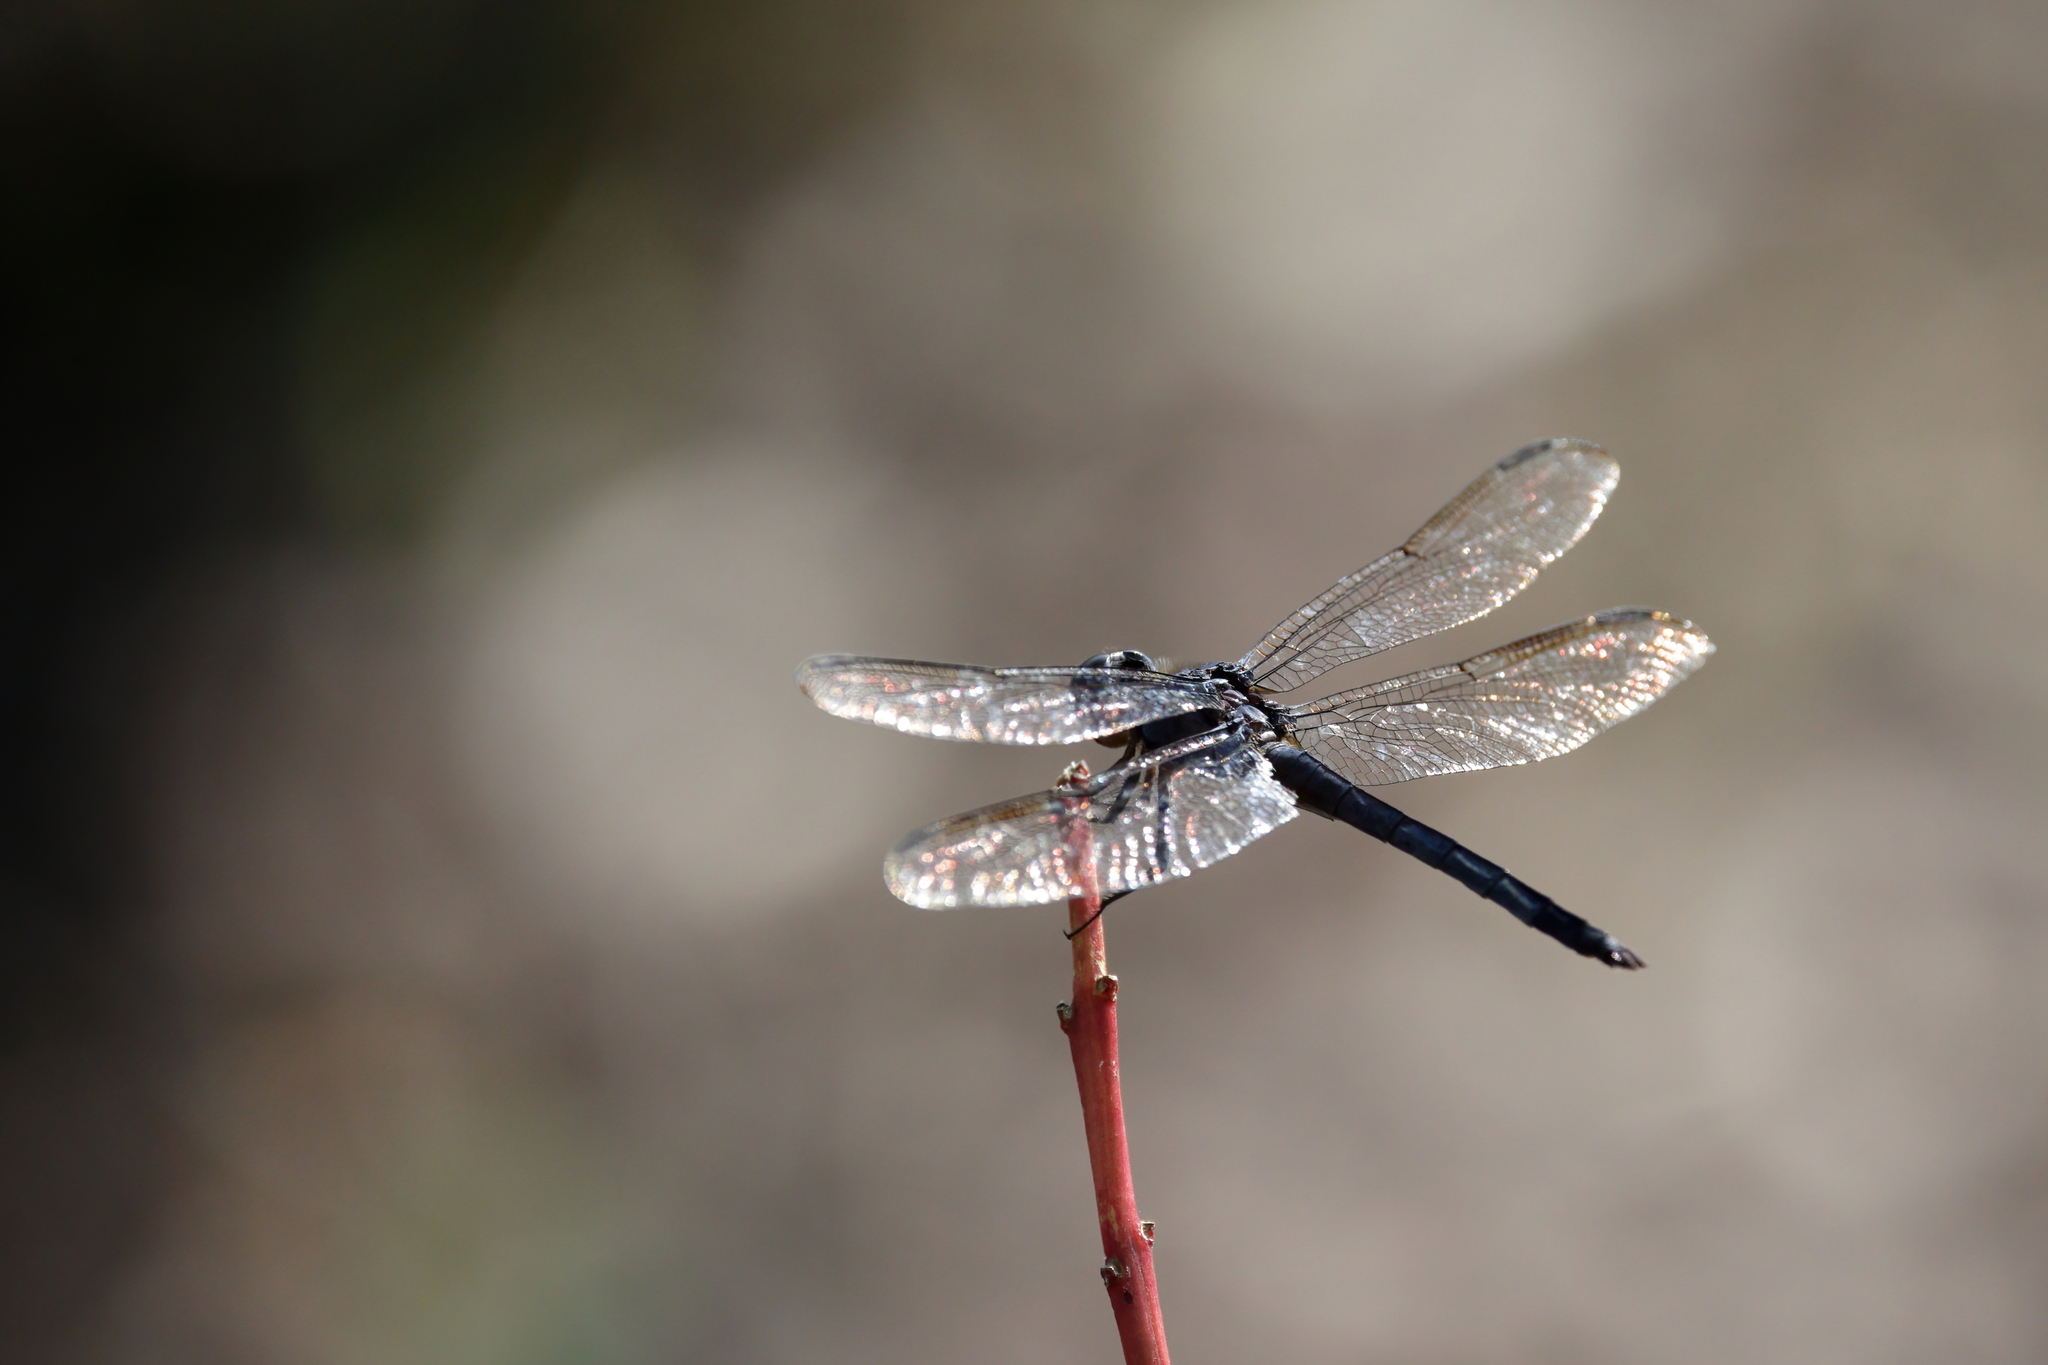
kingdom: Animalia
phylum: Arthropoda
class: Insecta
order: Odonata
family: Libellulidae
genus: Libellula
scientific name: Libellula incesta
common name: Slaty skimmer
